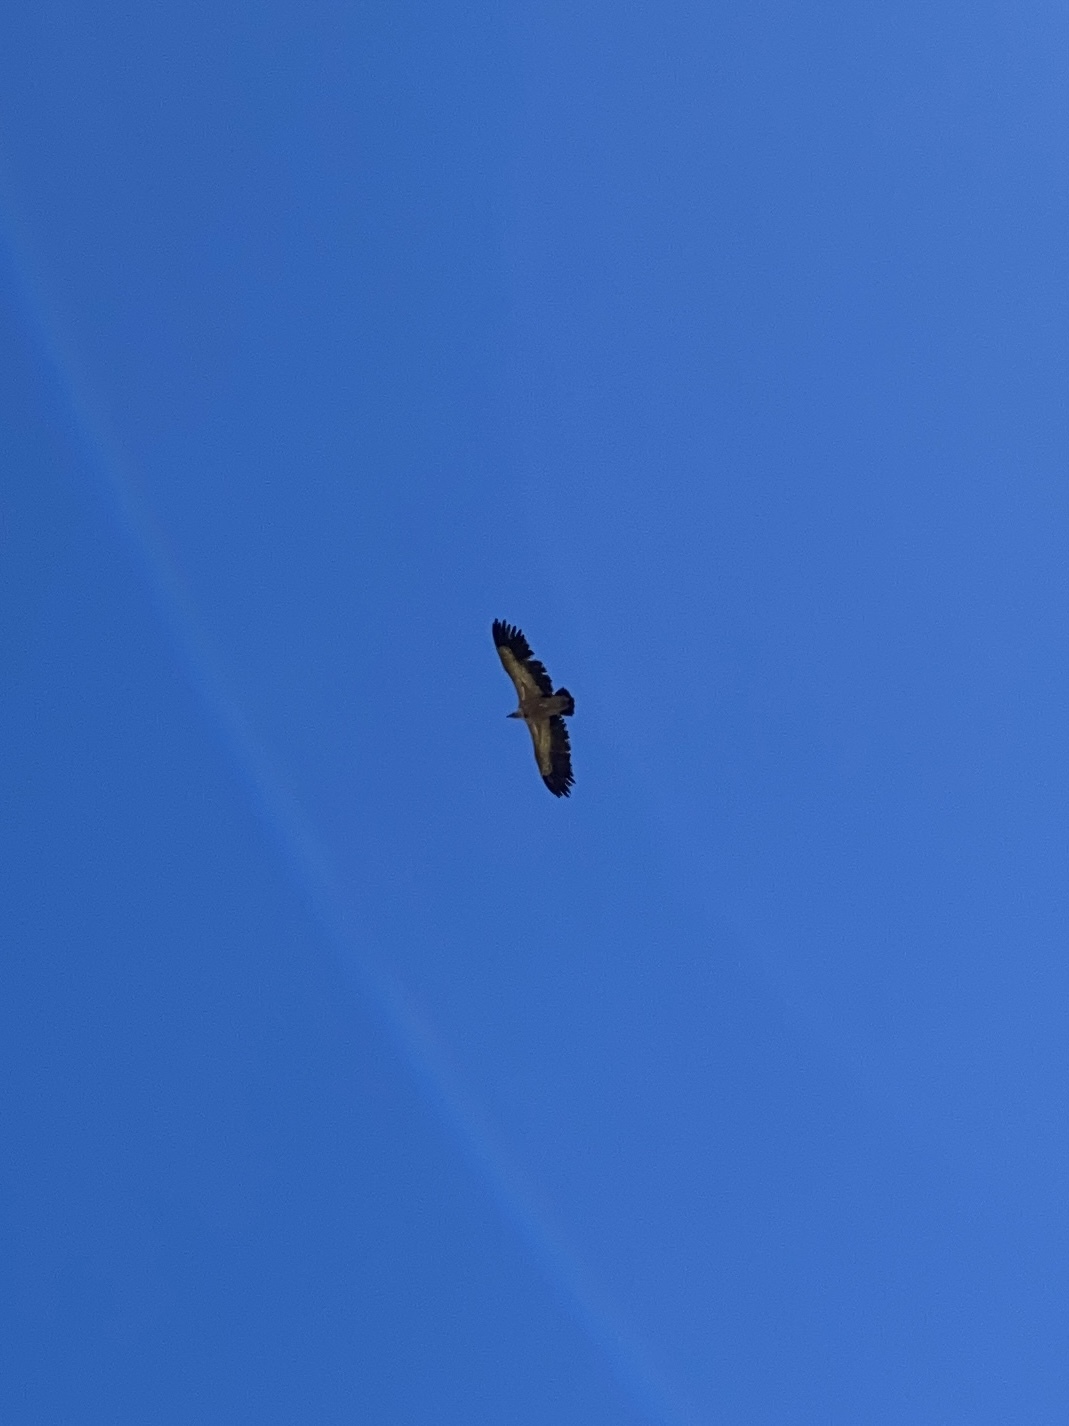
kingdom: Animalia
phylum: Chordata
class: Aves
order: Accipitriformes
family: Accipitridae
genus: Gyps
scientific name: Gyps fulvus
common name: Griffon vulture
